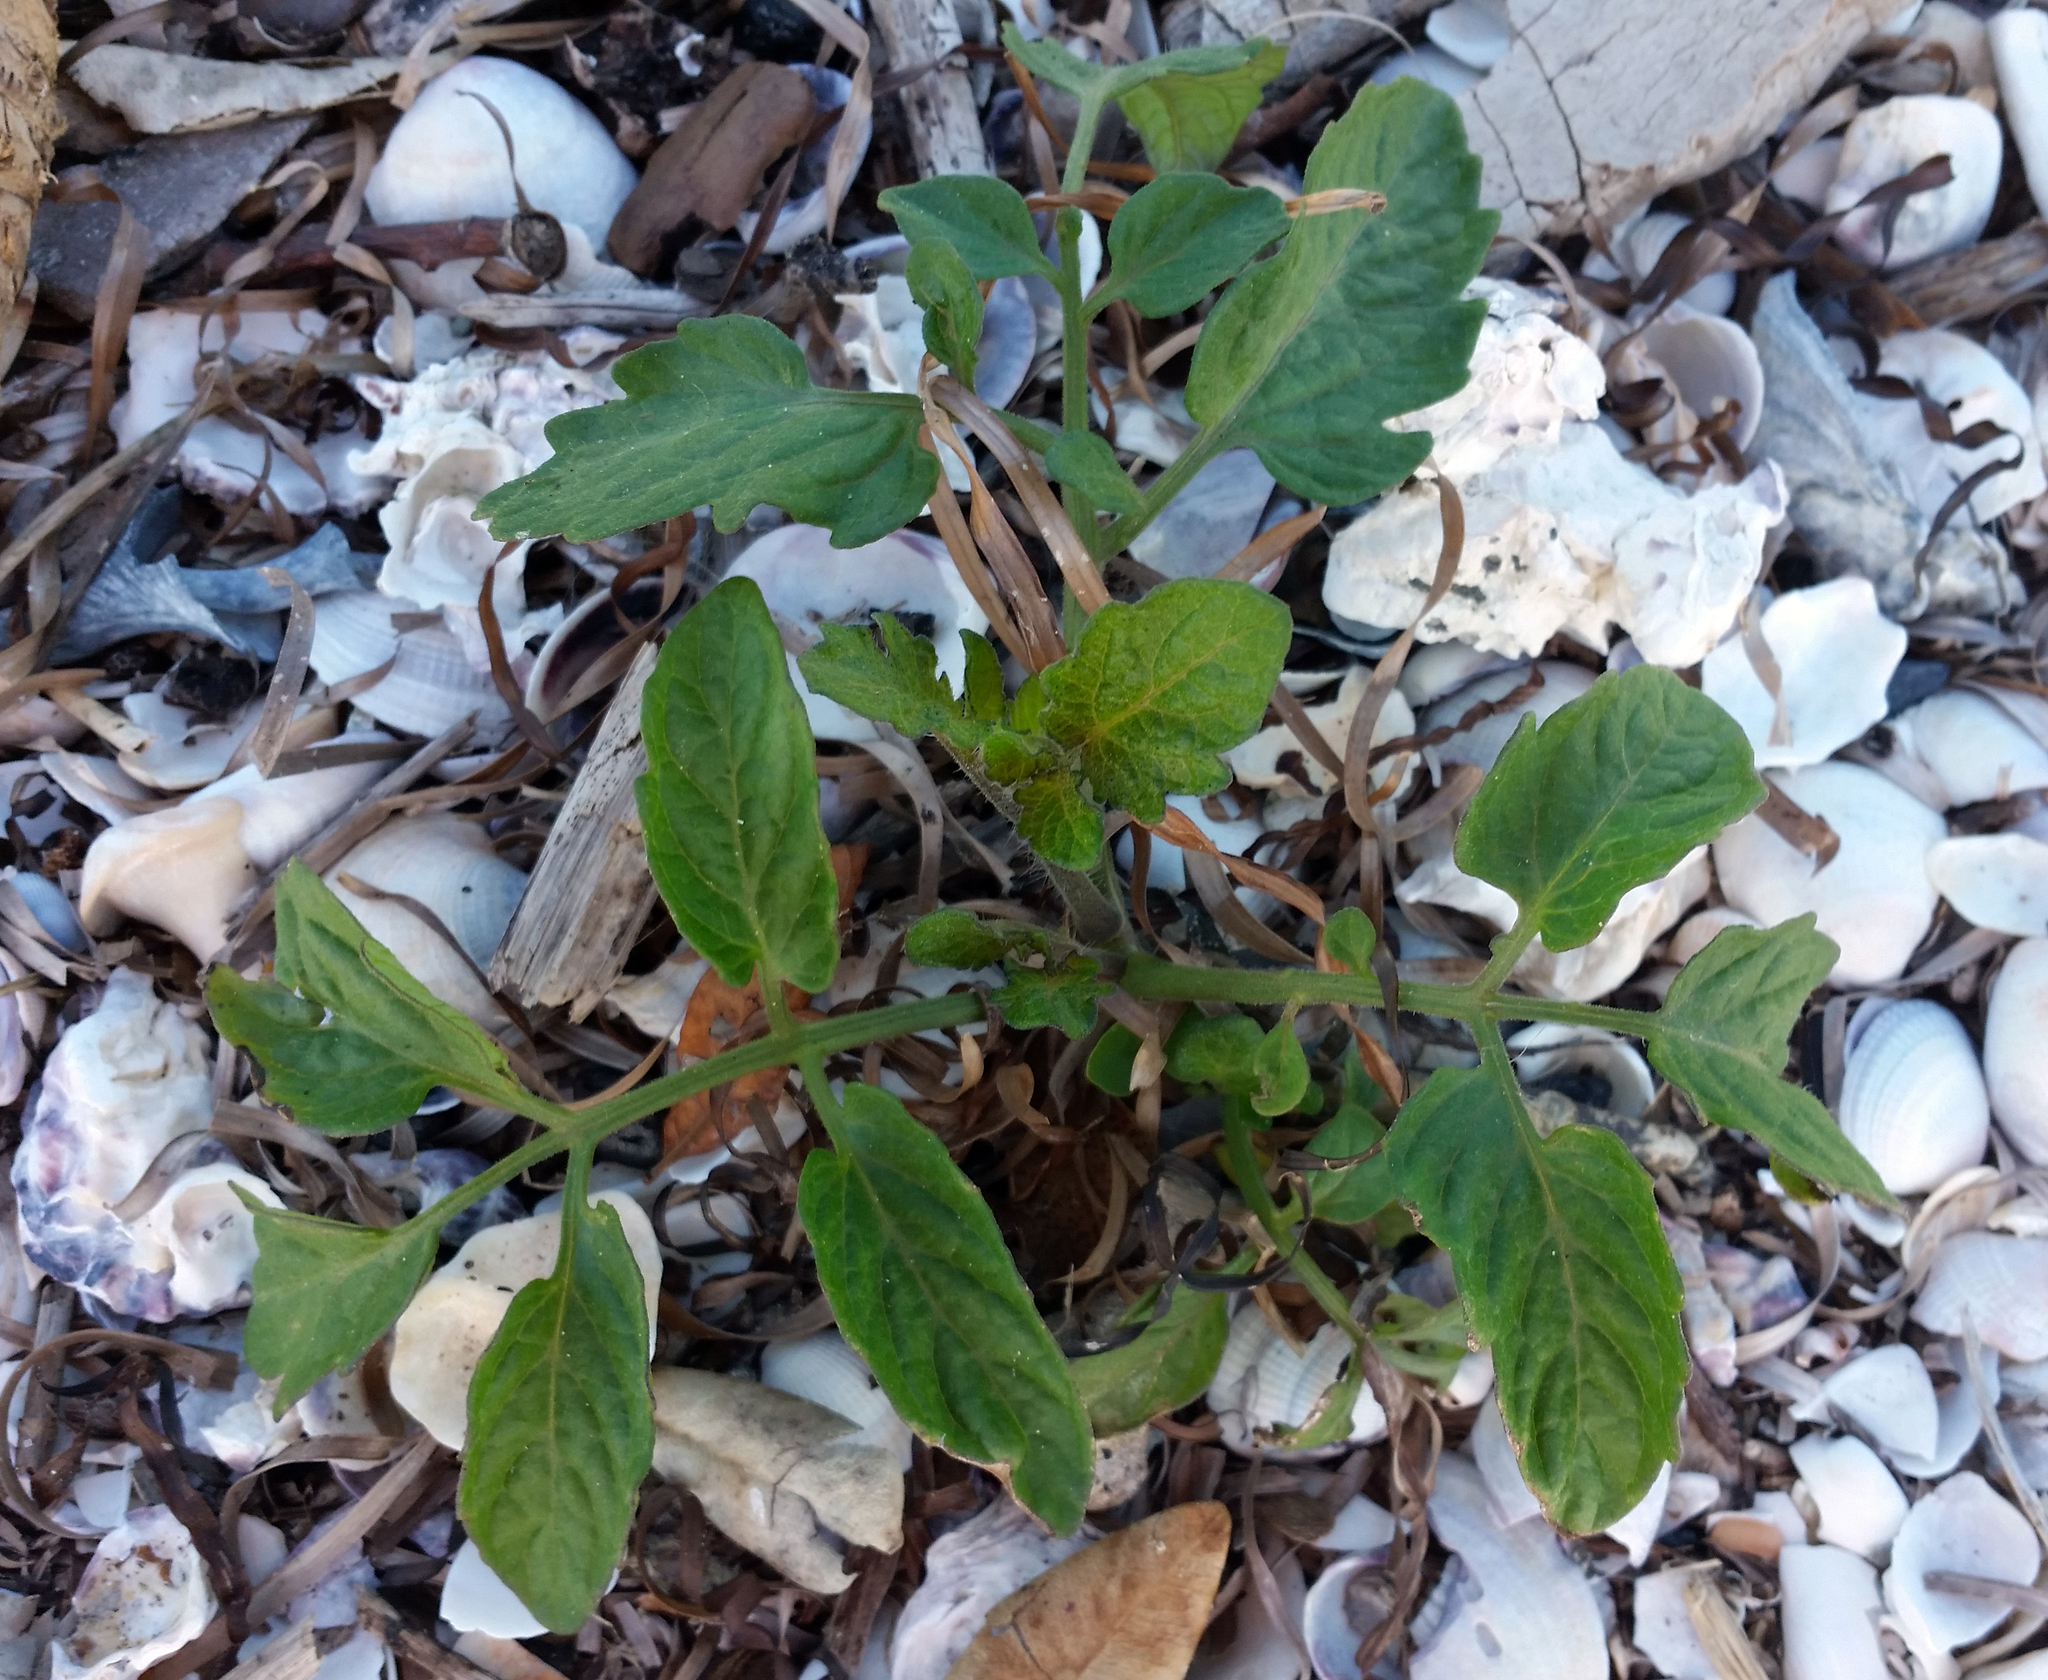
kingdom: Plantae
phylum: Tracheophyta
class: Magnoliopsida
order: Solanales
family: Solanaceae
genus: Solanum
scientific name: Solanum lycopersicum
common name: Garden tomato
